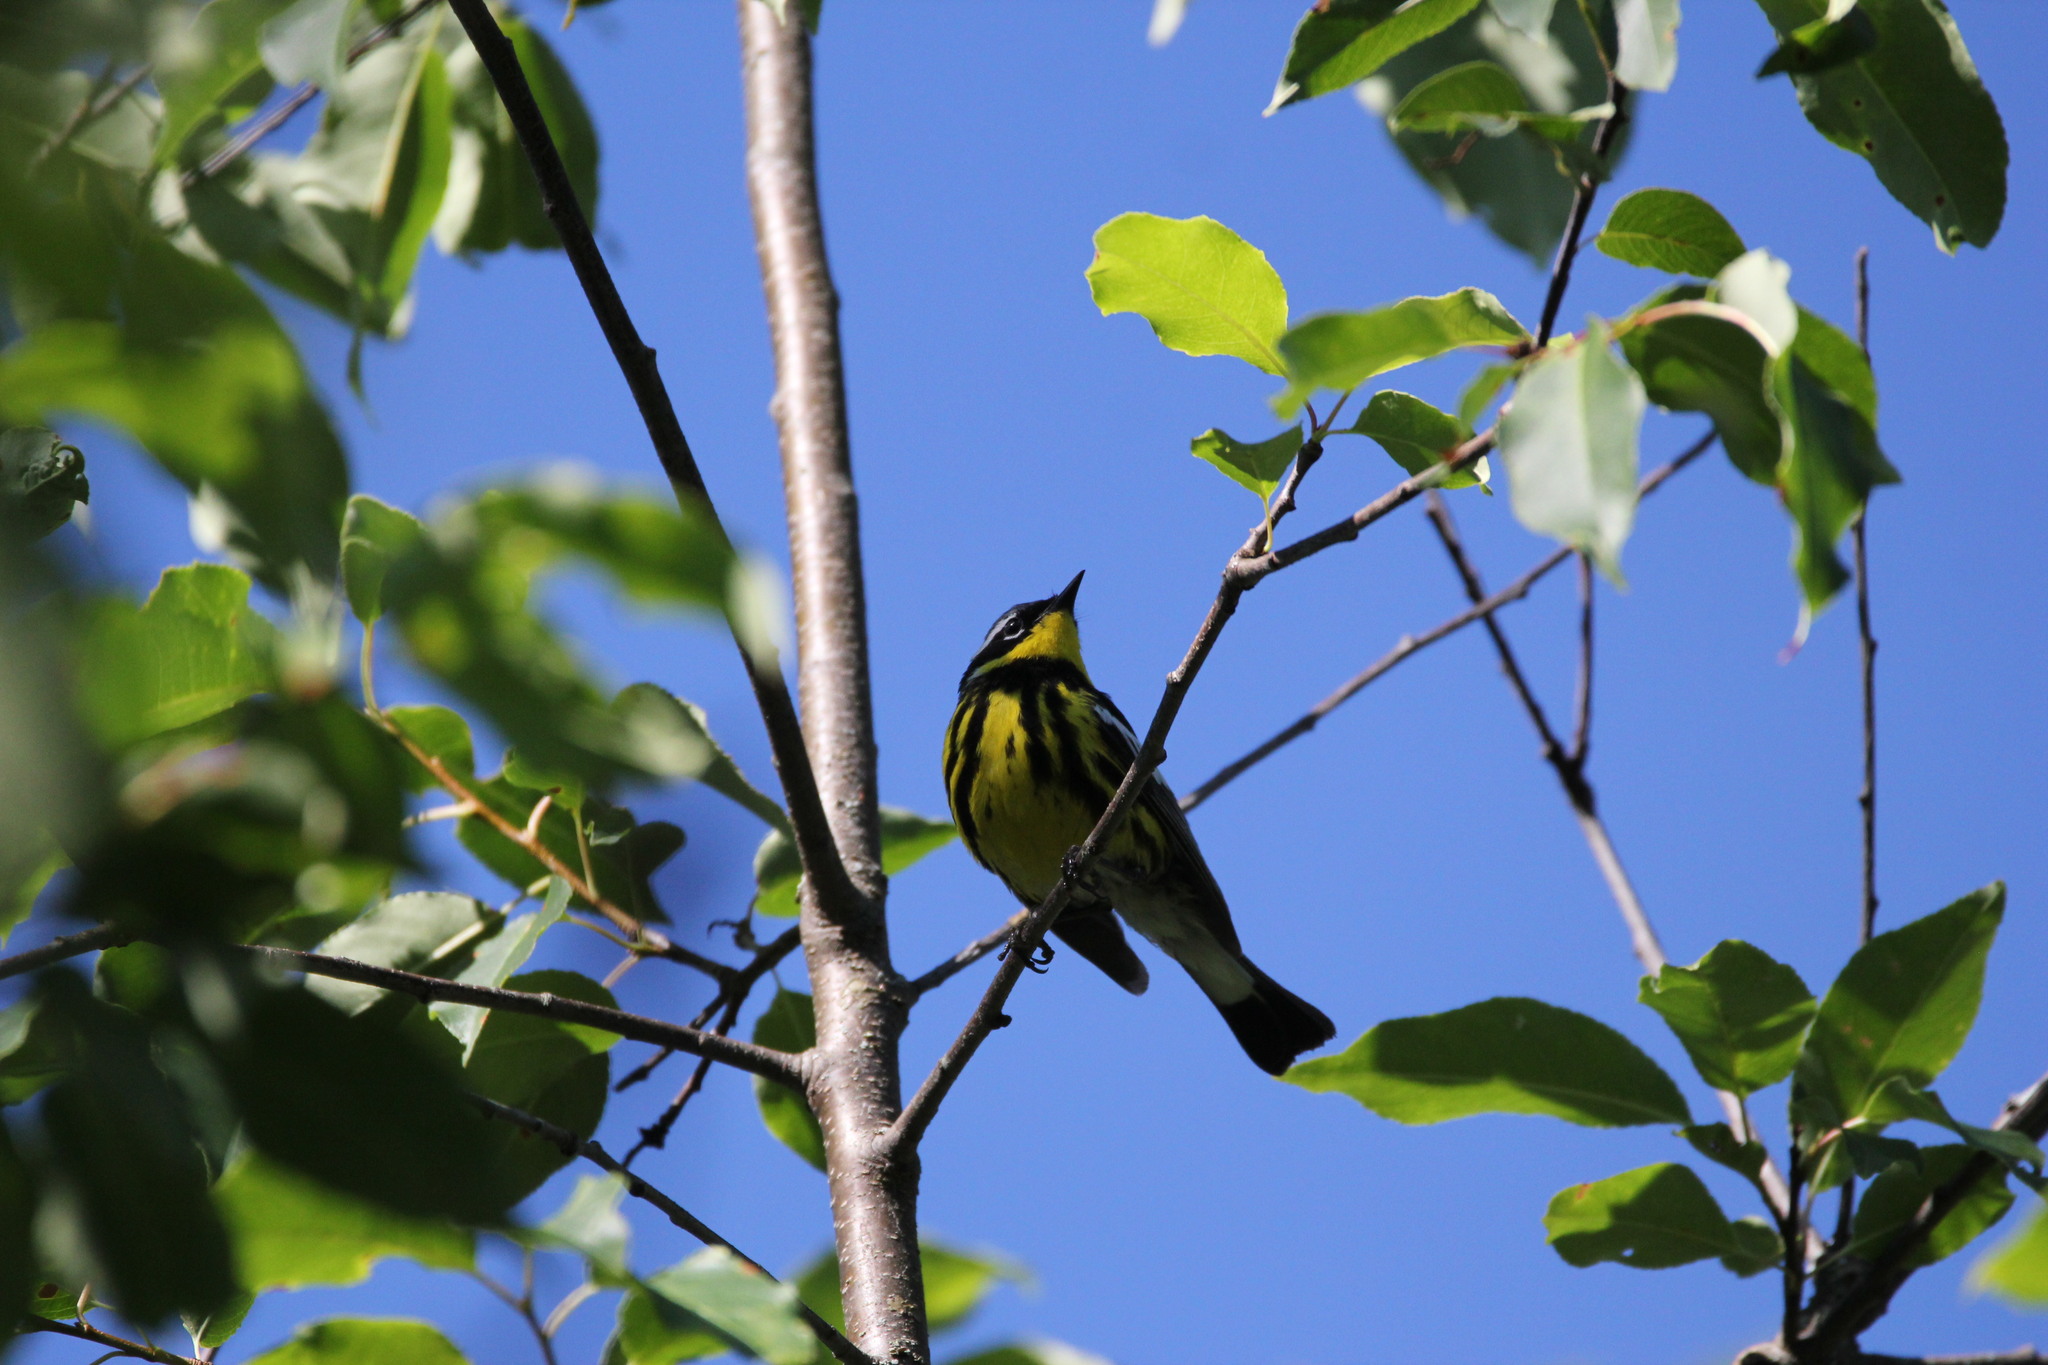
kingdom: Animalia
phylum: Chordata
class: Aves
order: Passeriformes
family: Parulidae
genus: Setophaga
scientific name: Setophaga magnolia
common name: Magnolia warbler
